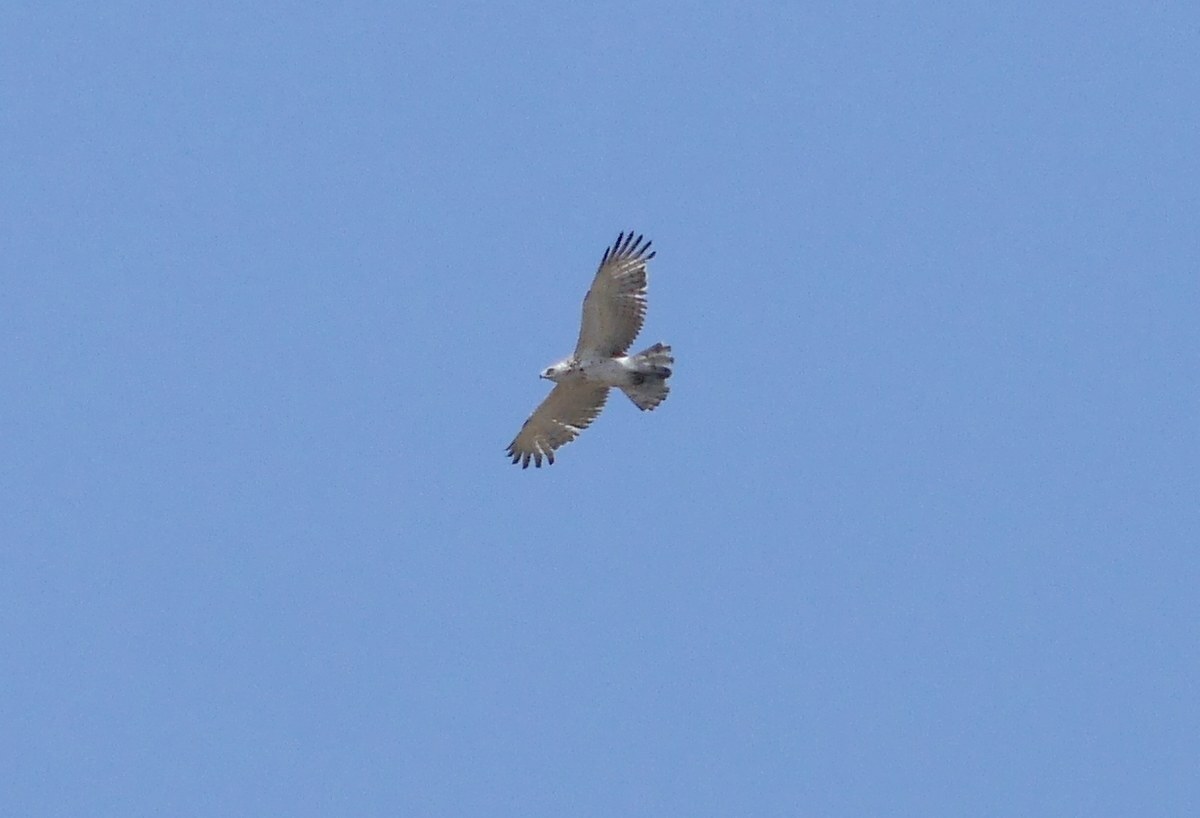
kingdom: Animalia
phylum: Chordata
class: Aves
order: Accipitriformes
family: Accipitridae
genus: Circaetus
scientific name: Circaetus gallicus
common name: Short-toed snake eagle
